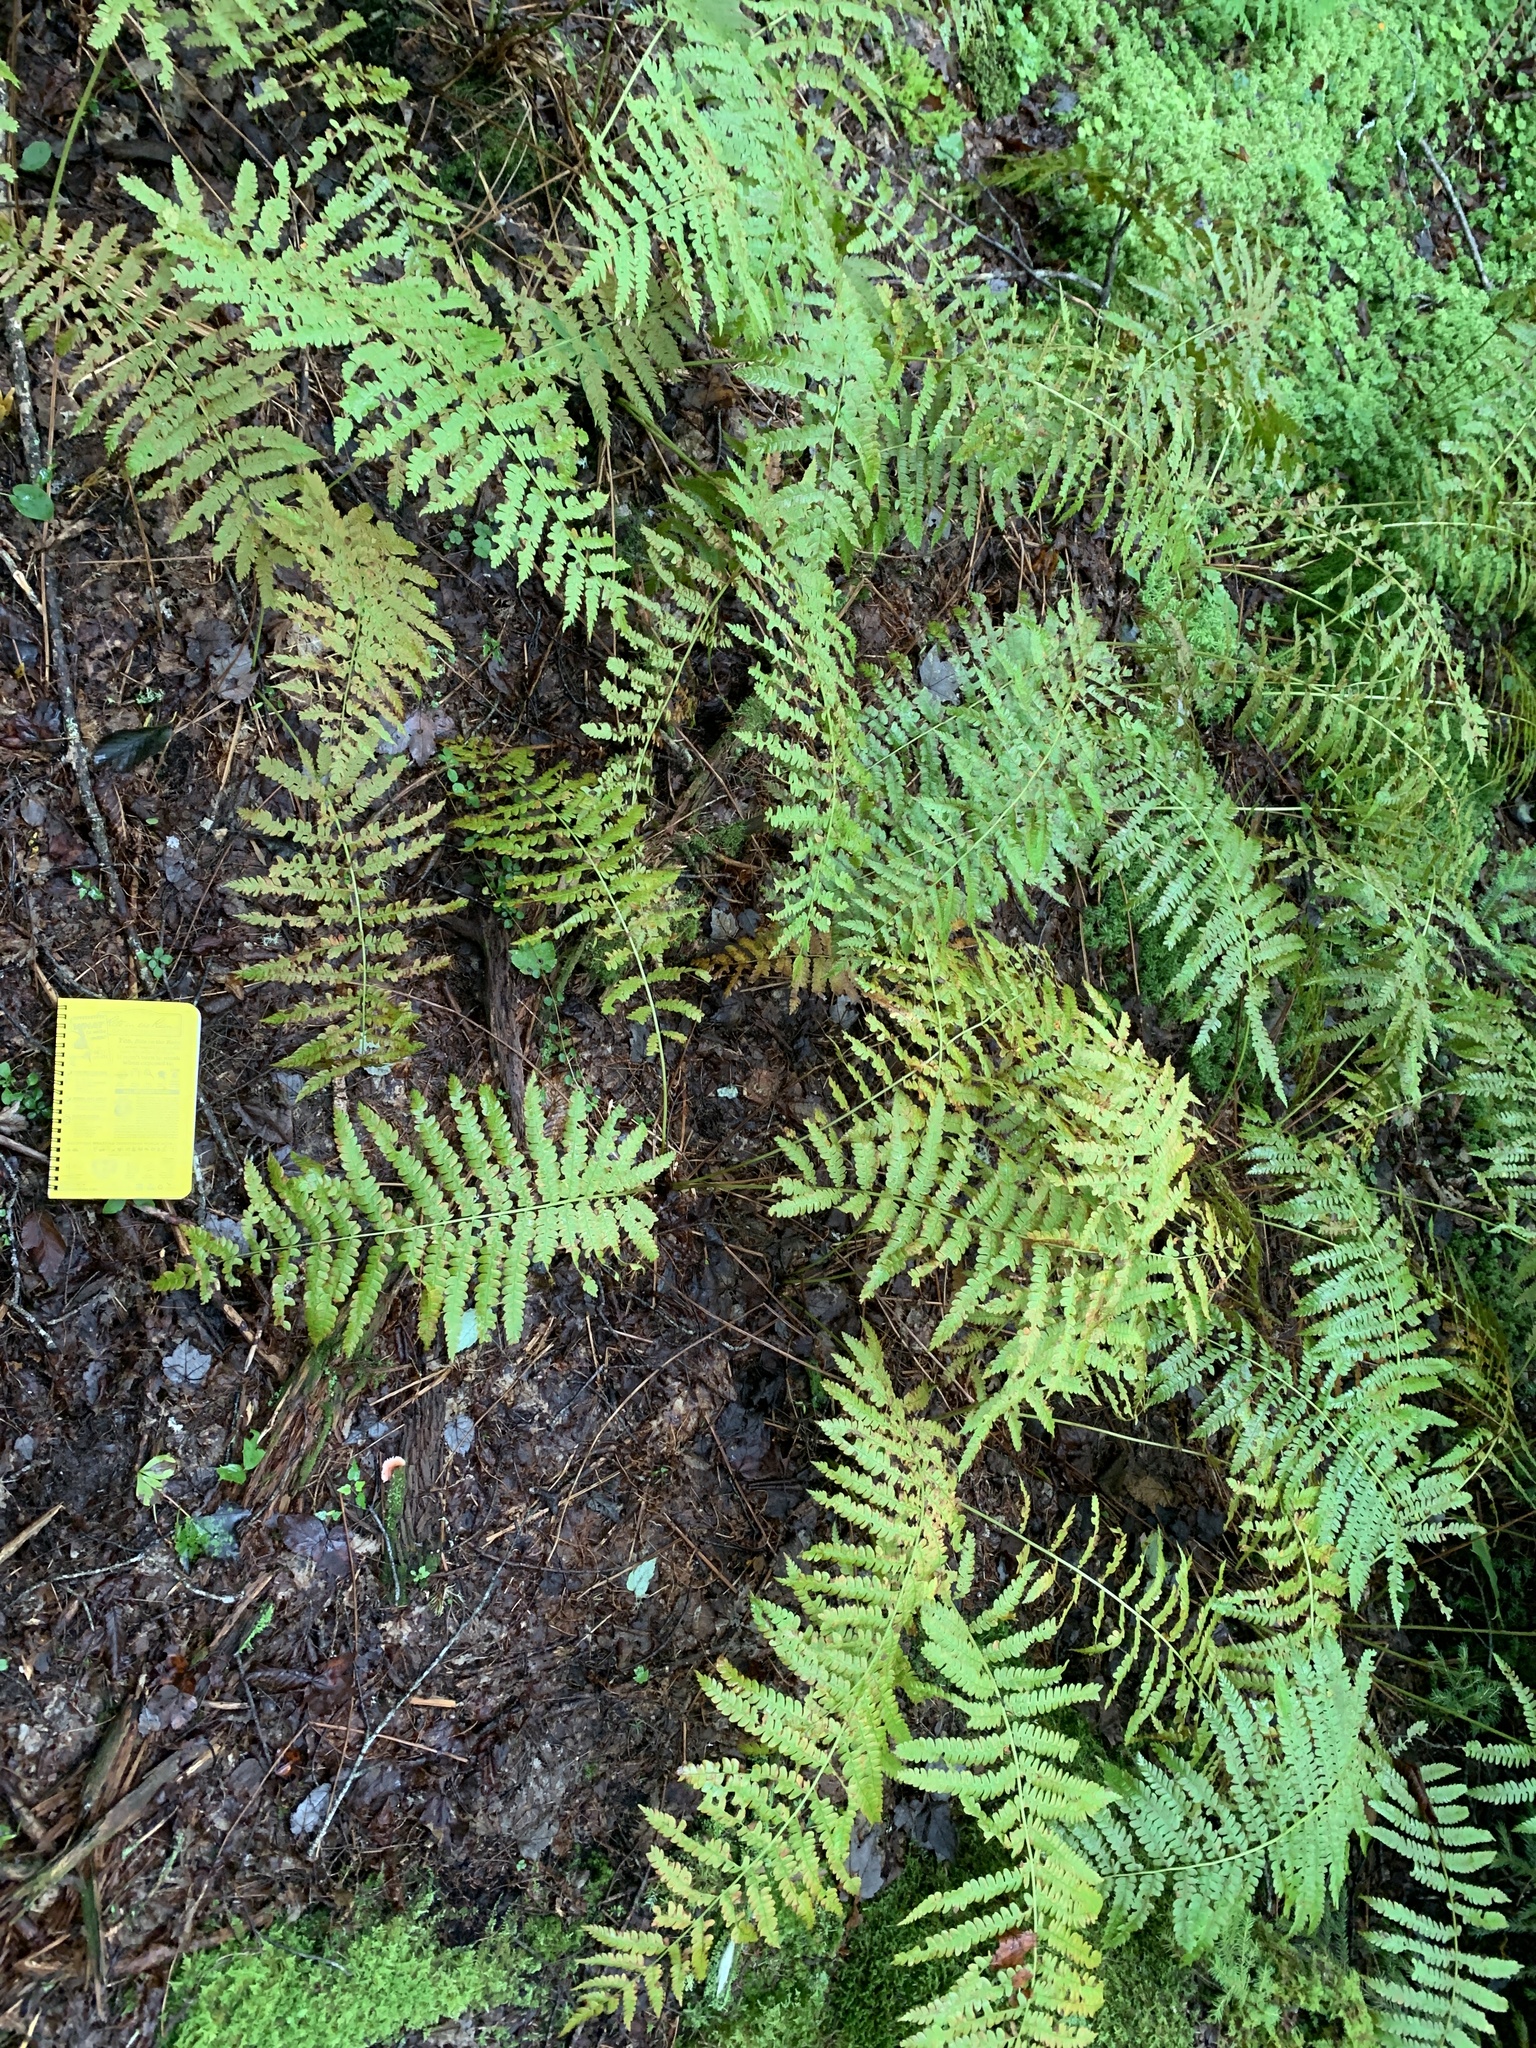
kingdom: Plantae
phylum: Tracheophyta
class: Polypodiopsida
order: Osmundales
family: Osmundaceae
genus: Osmundastrum
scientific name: Osmundastrum cinnamomeum
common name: Cinnamon fern
